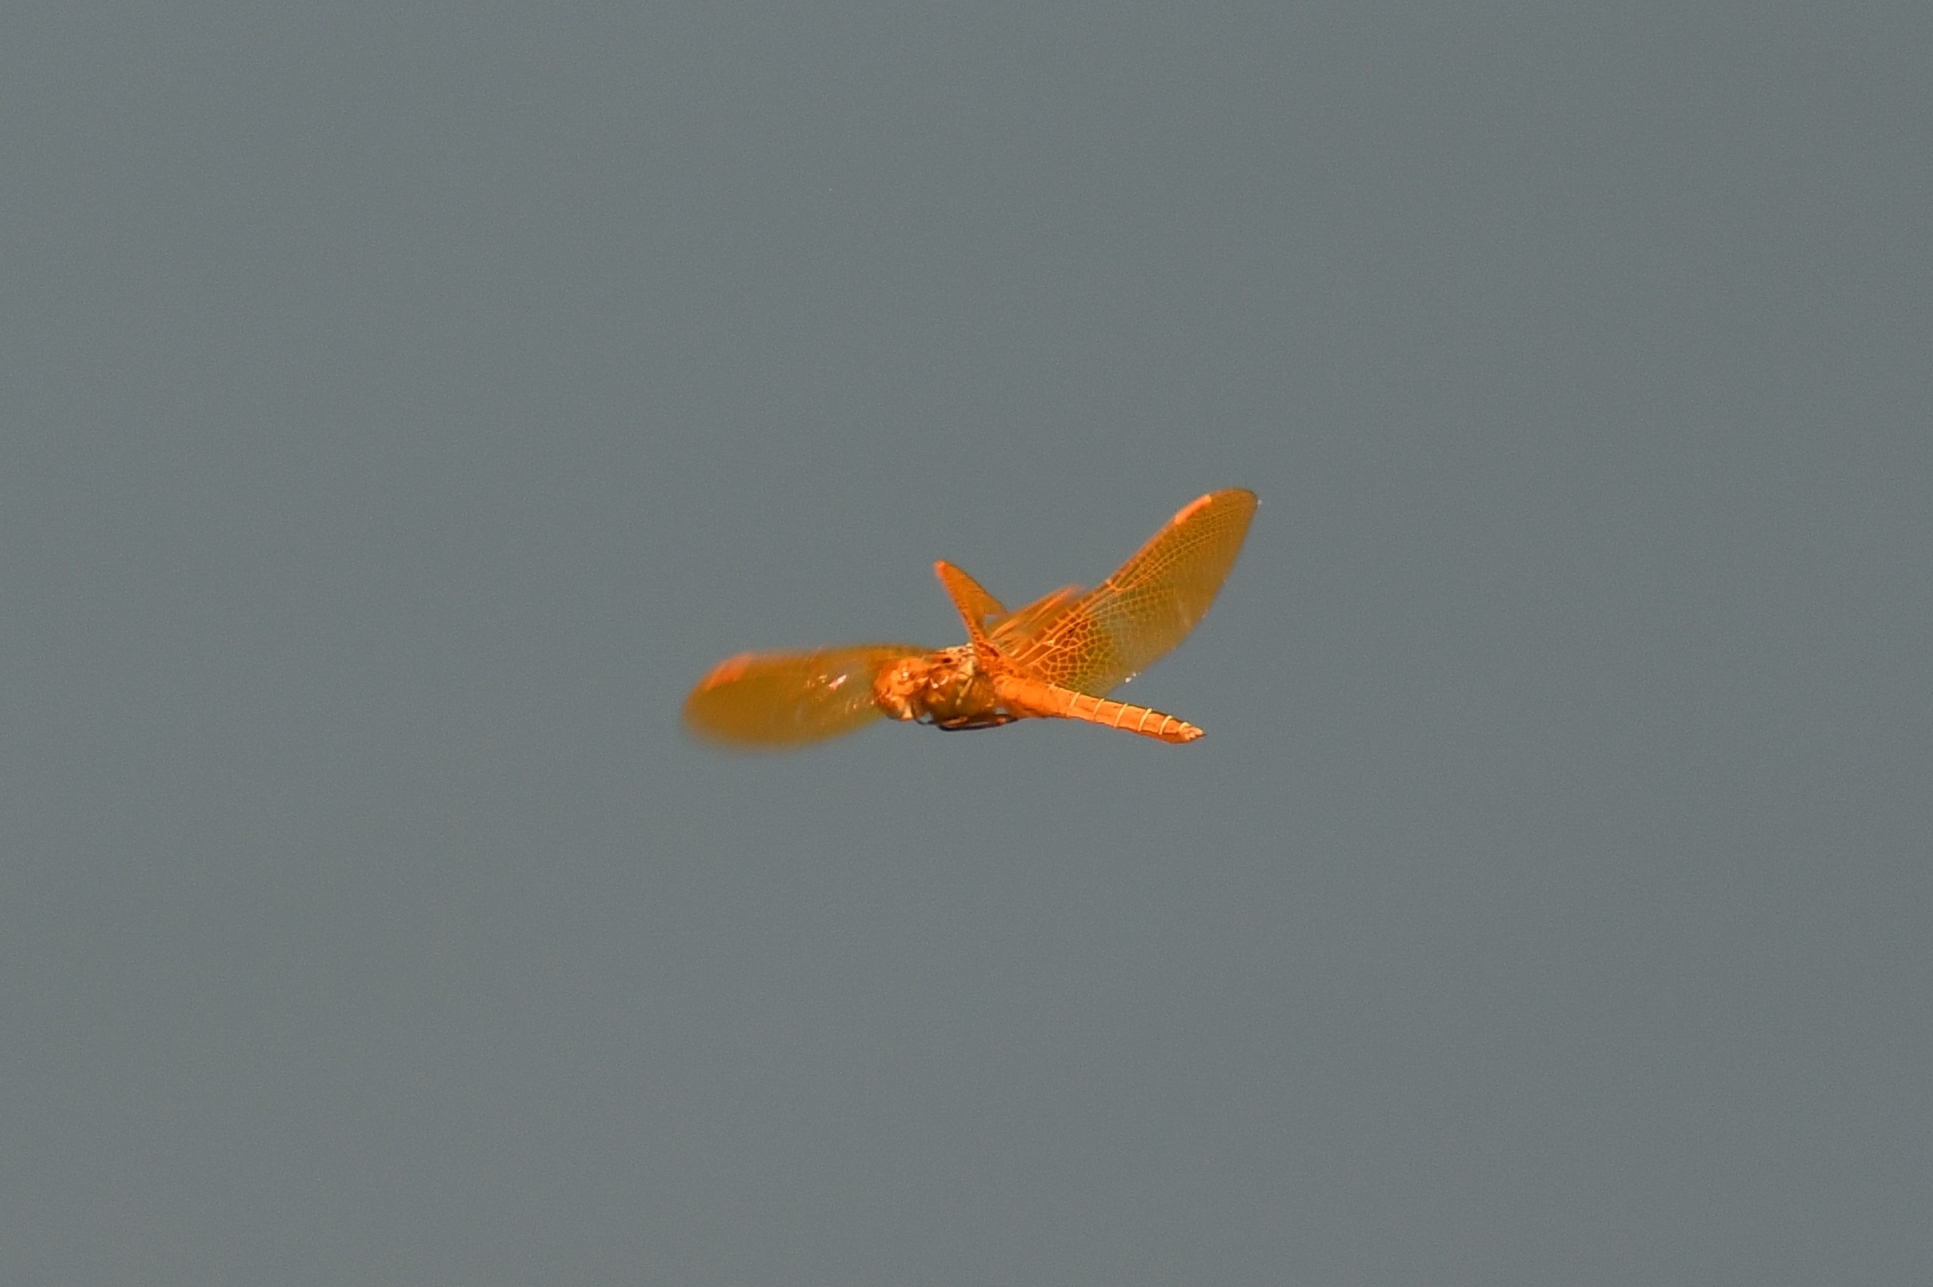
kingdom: Animalia
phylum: Arthropoda
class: Insecta
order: Odonata
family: Libellulidae
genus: Perithemis
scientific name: Perithemis intensa
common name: Mexican amberwing
